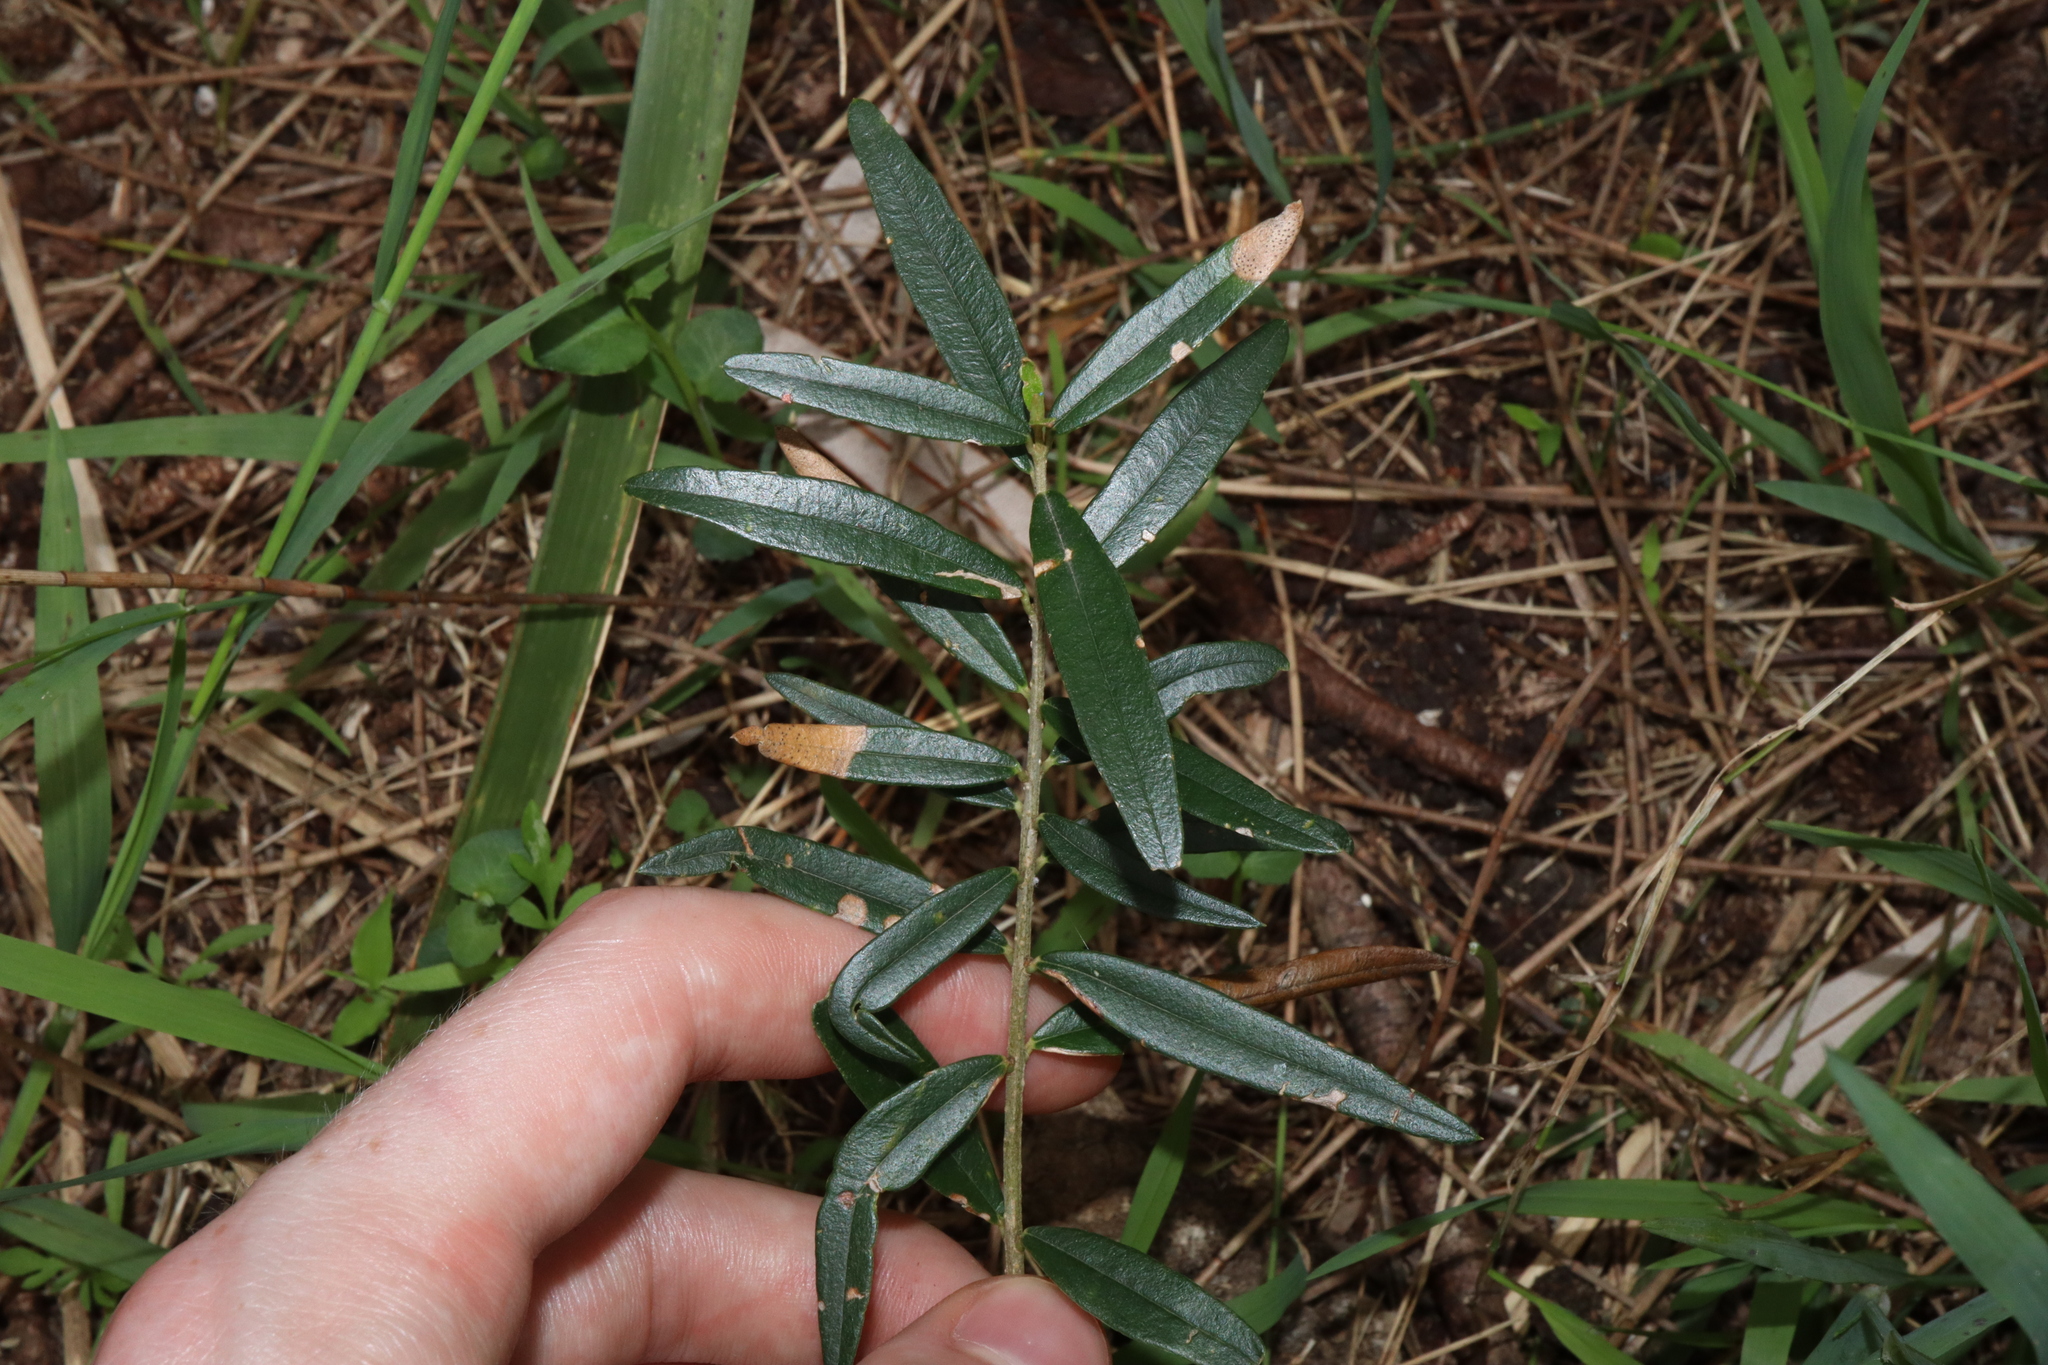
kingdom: Plantae
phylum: Tracheophyta
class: Magnoliopsida
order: Lamiales
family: Oleaceae
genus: Olea
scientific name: Olea europaea
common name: Olive
